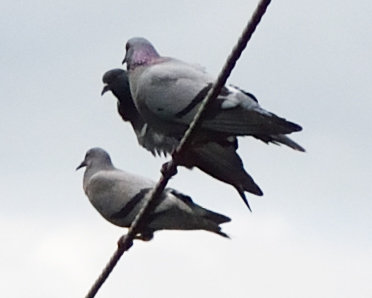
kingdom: Animalia
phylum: Chordata
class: Aves
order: Columbiformes
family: Columbidae
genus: Columba
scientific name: Columba livia
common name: Rock pigeon
